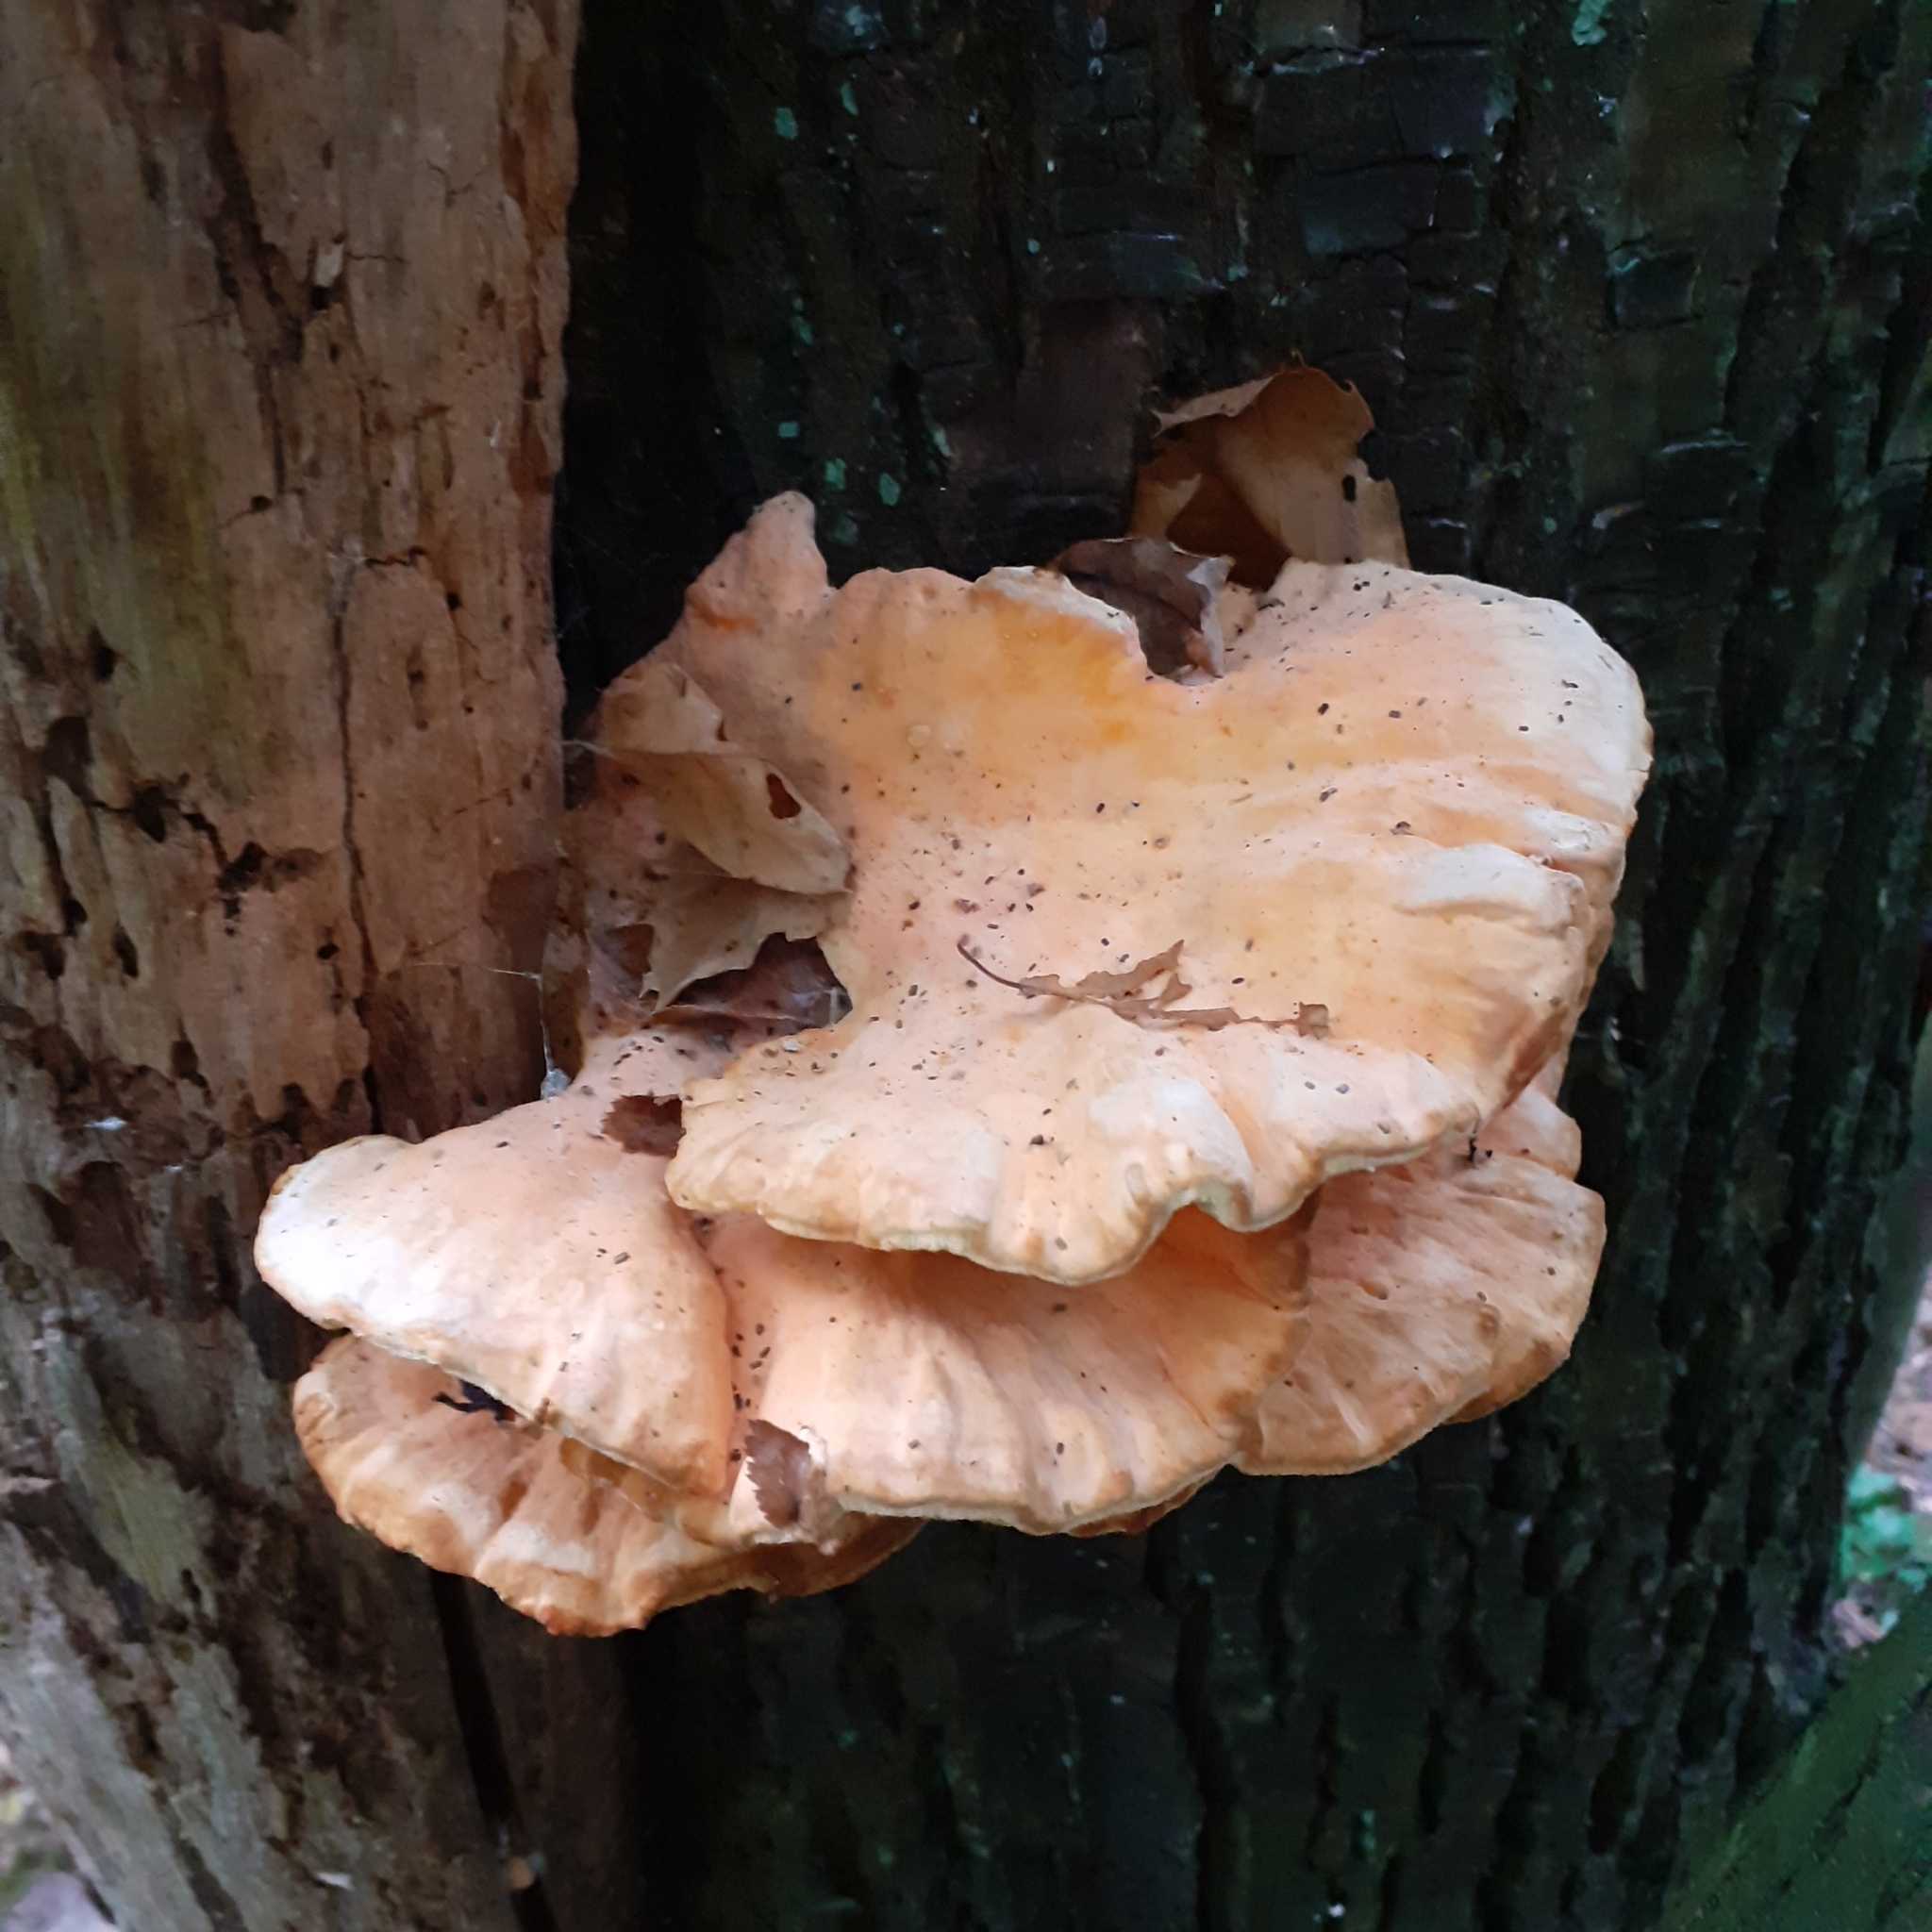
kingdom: Fungi
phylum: Basidiomycota
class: Agaricomycetes
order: Polyporales
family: Laetiporaceae
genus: Laetiporus
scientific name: Laetiporus sulphureus
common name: Chicken of the woods
